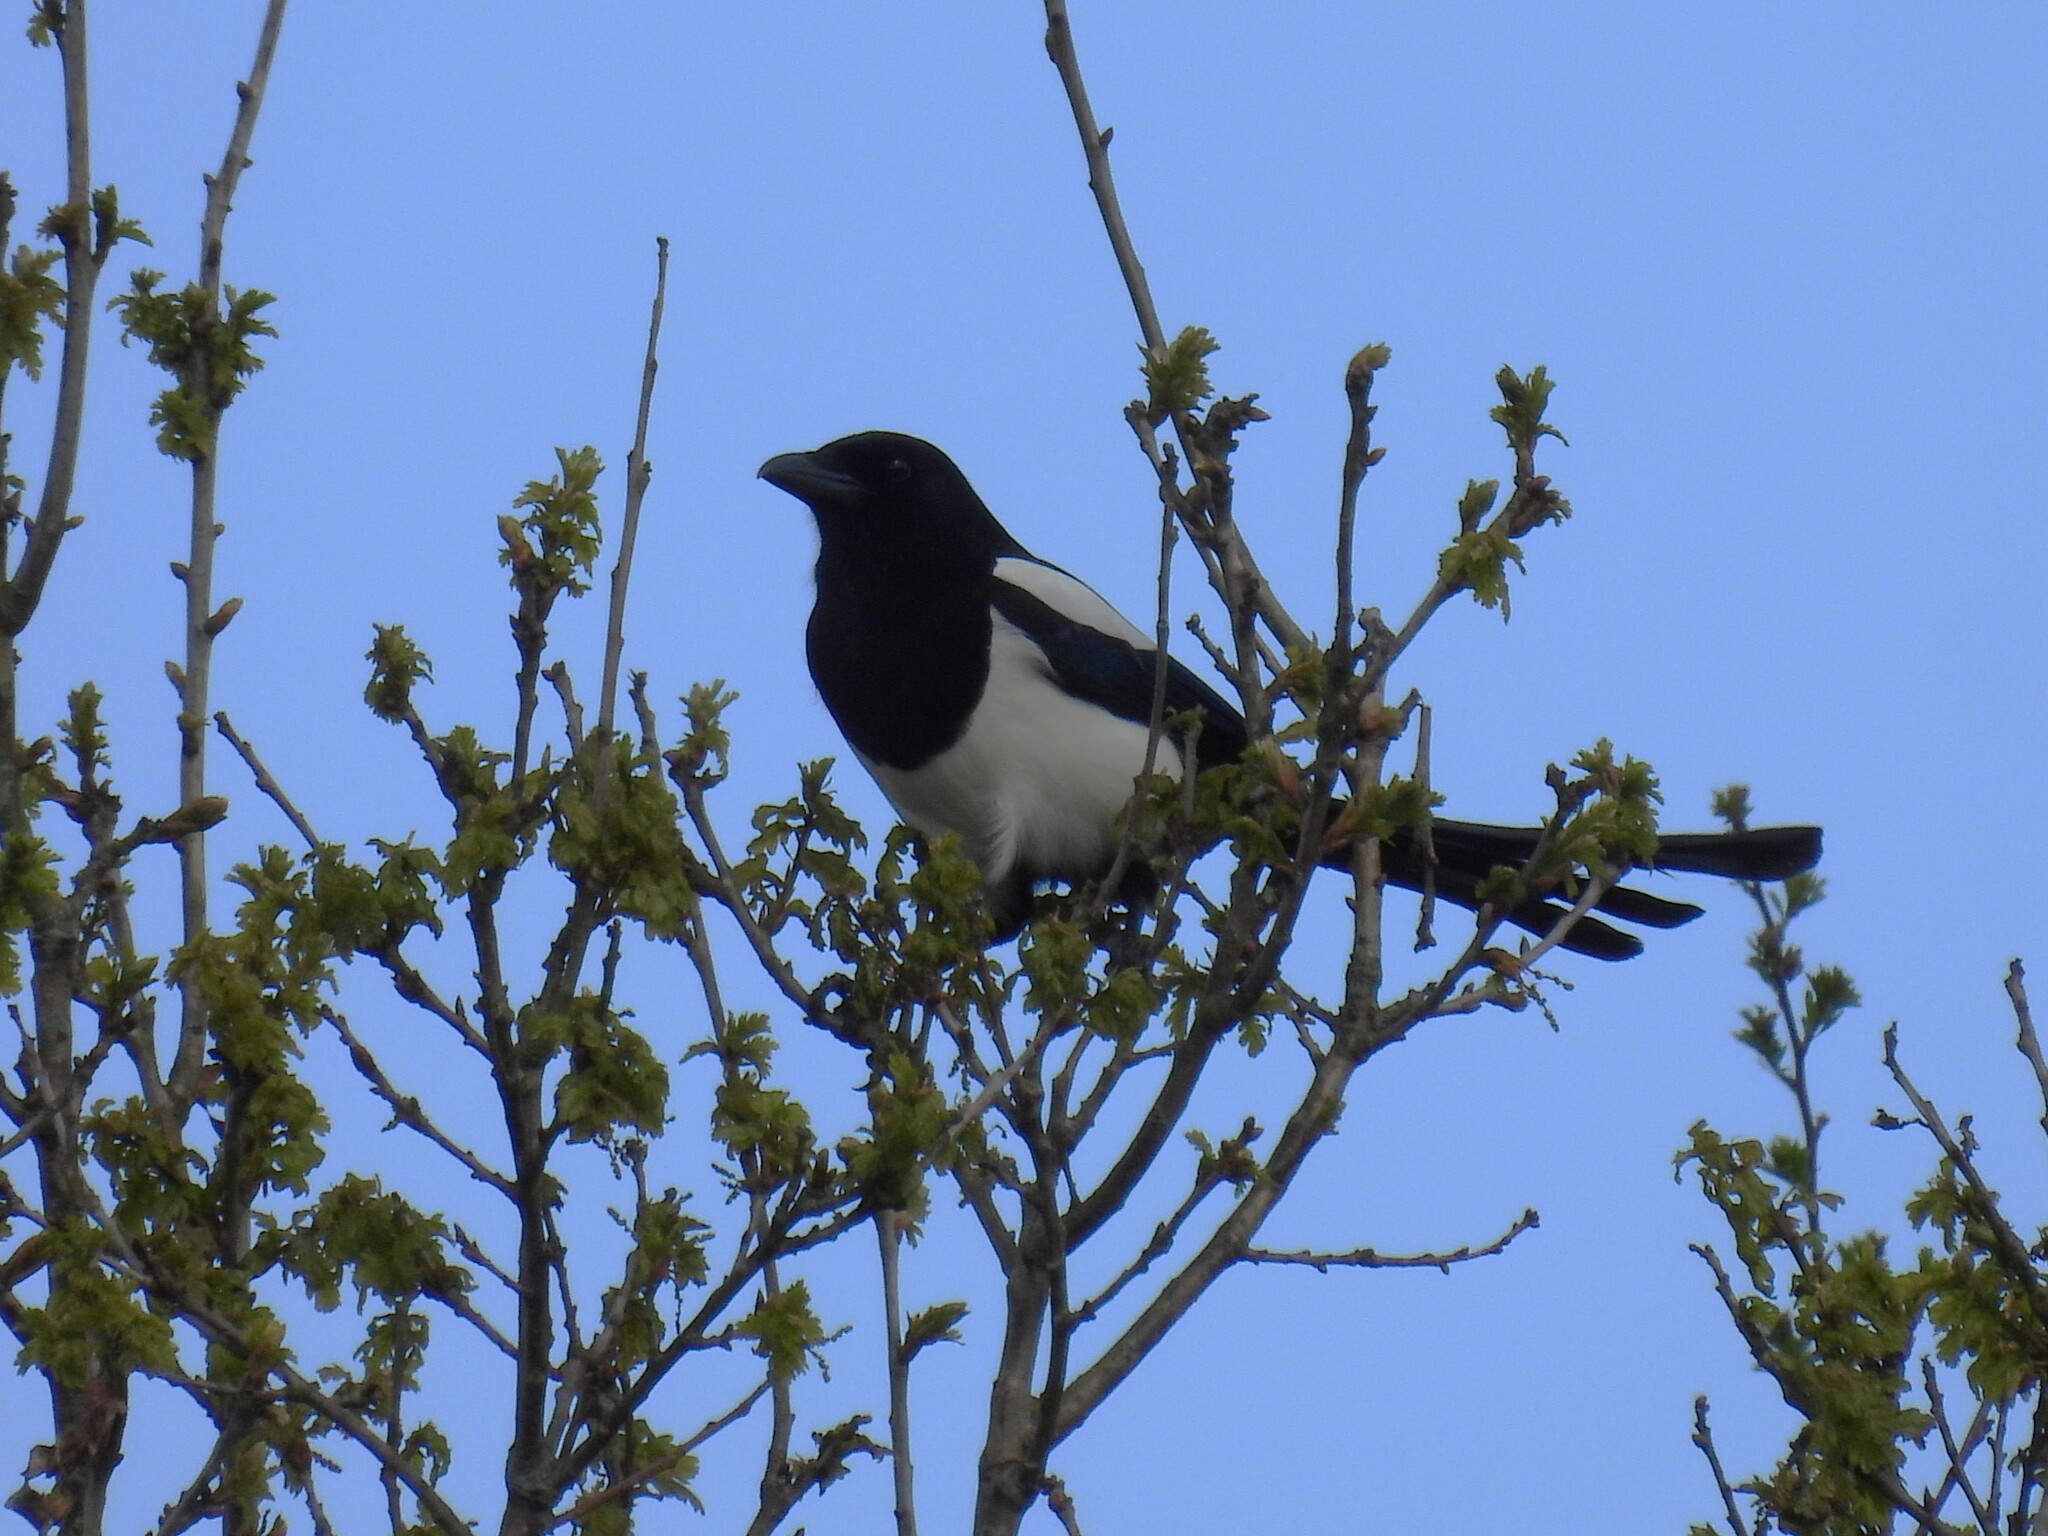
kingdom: Animalia
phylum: Chordata
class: Aves
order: Passeriformes
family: Corvidae
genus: Pica
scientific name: Pica pica
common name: Eurasian magpie
